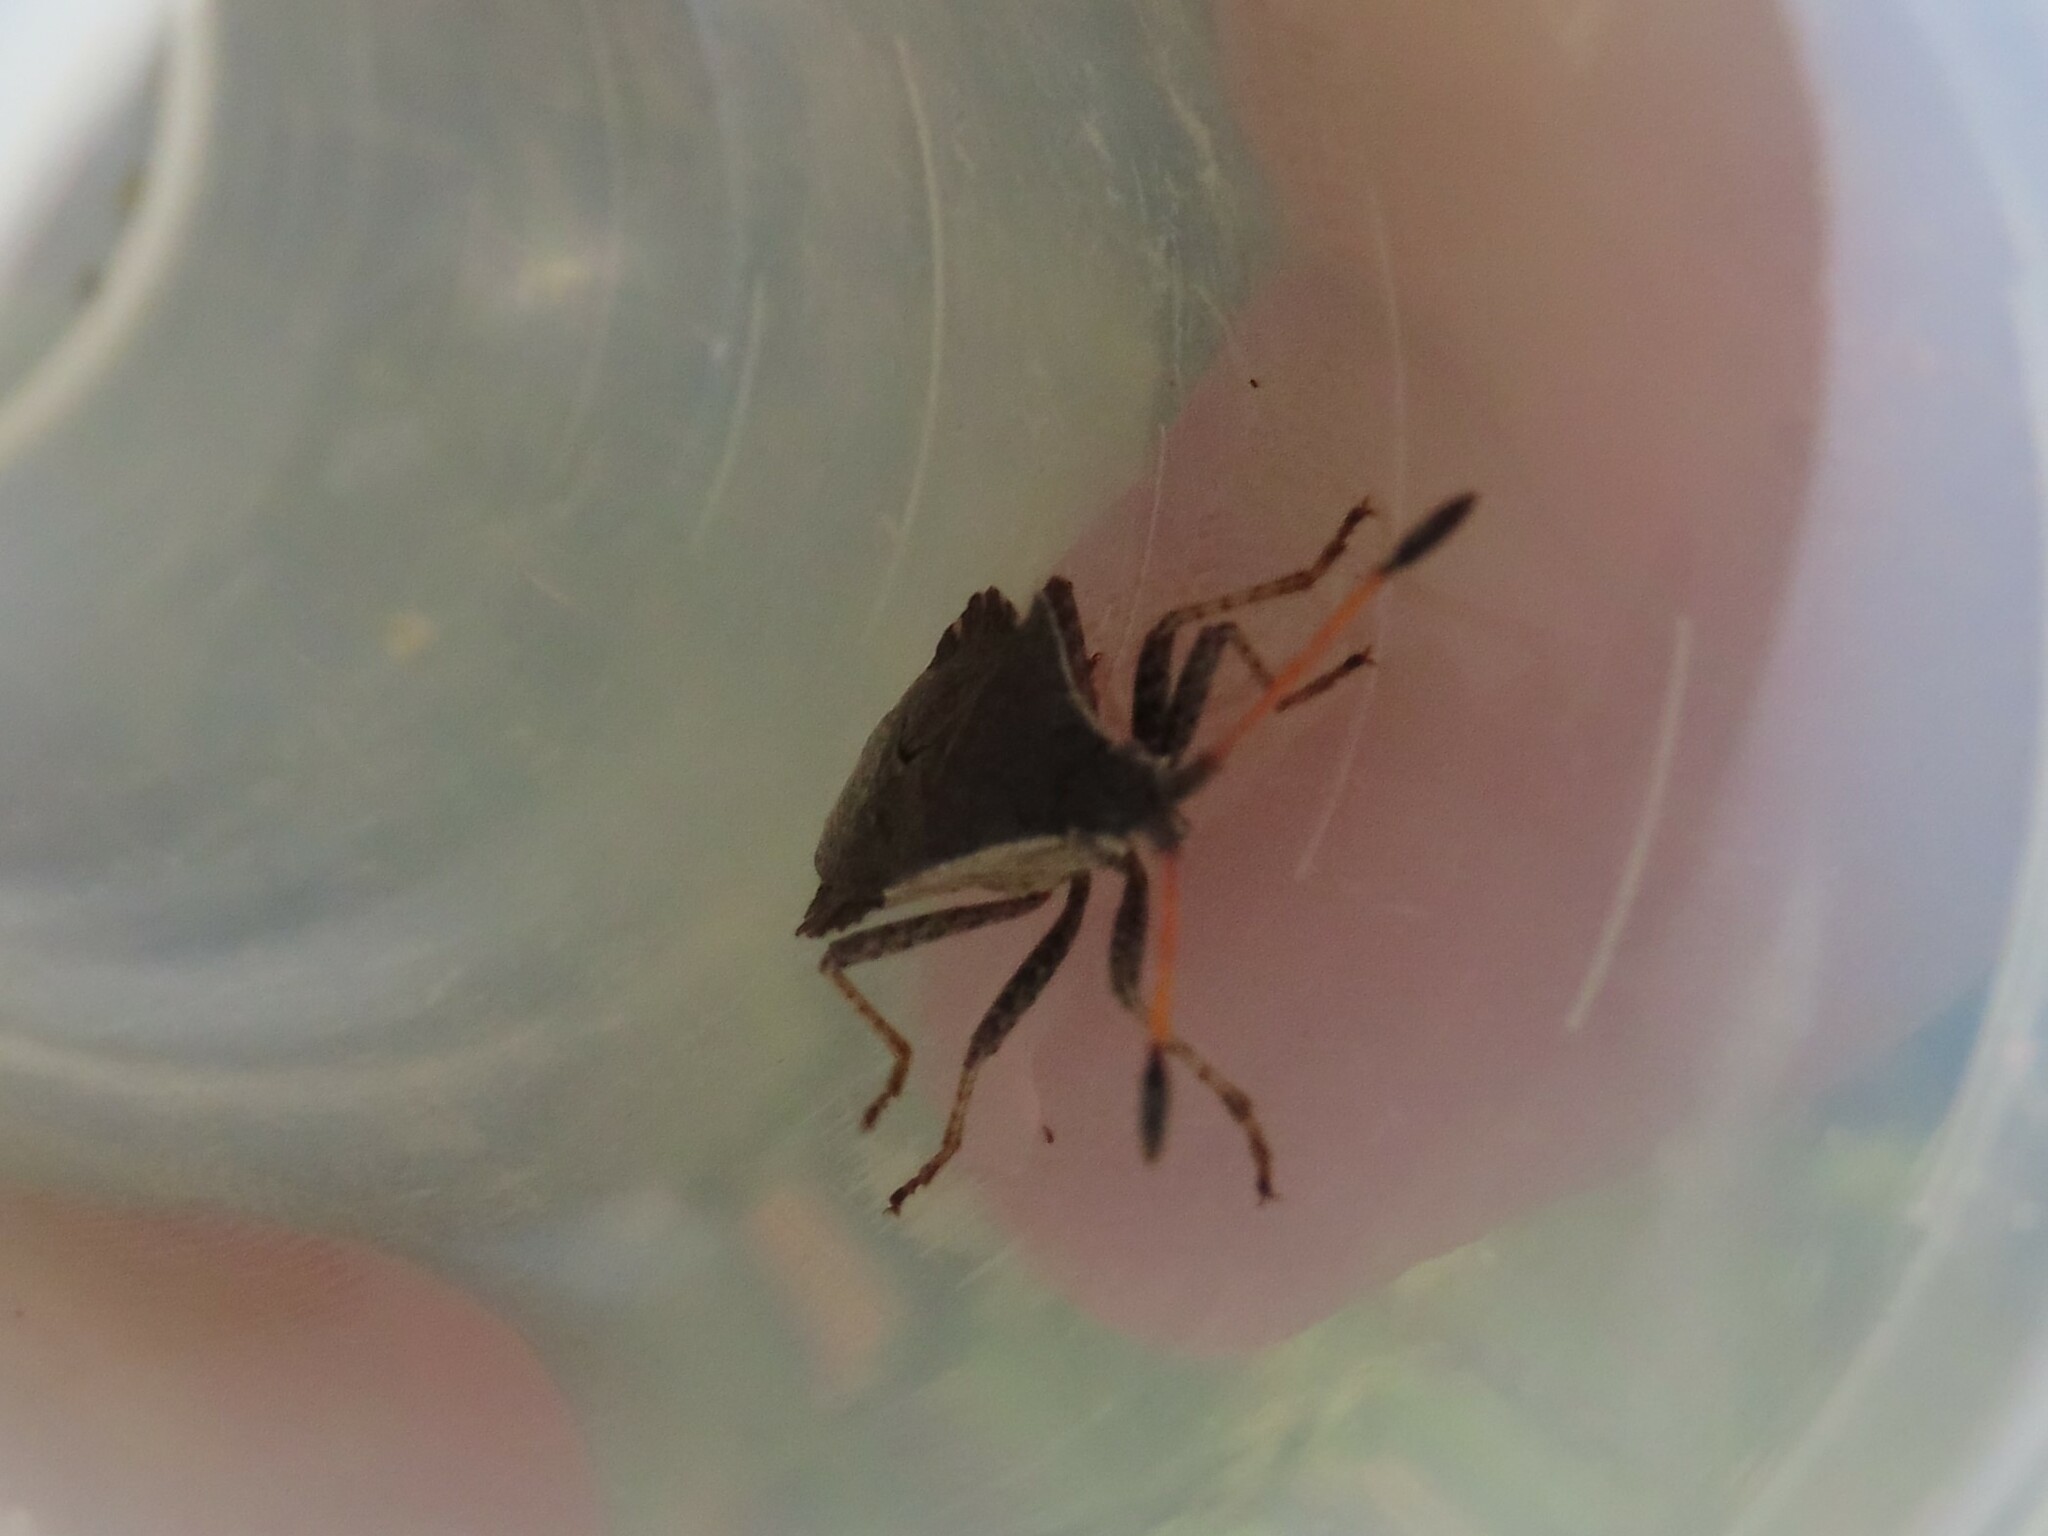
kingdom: Animalia
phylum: Arthropoda
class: Insecta
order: Hemiptera
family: Coreidae
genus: Enoplops
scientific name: Enoplops scapha
